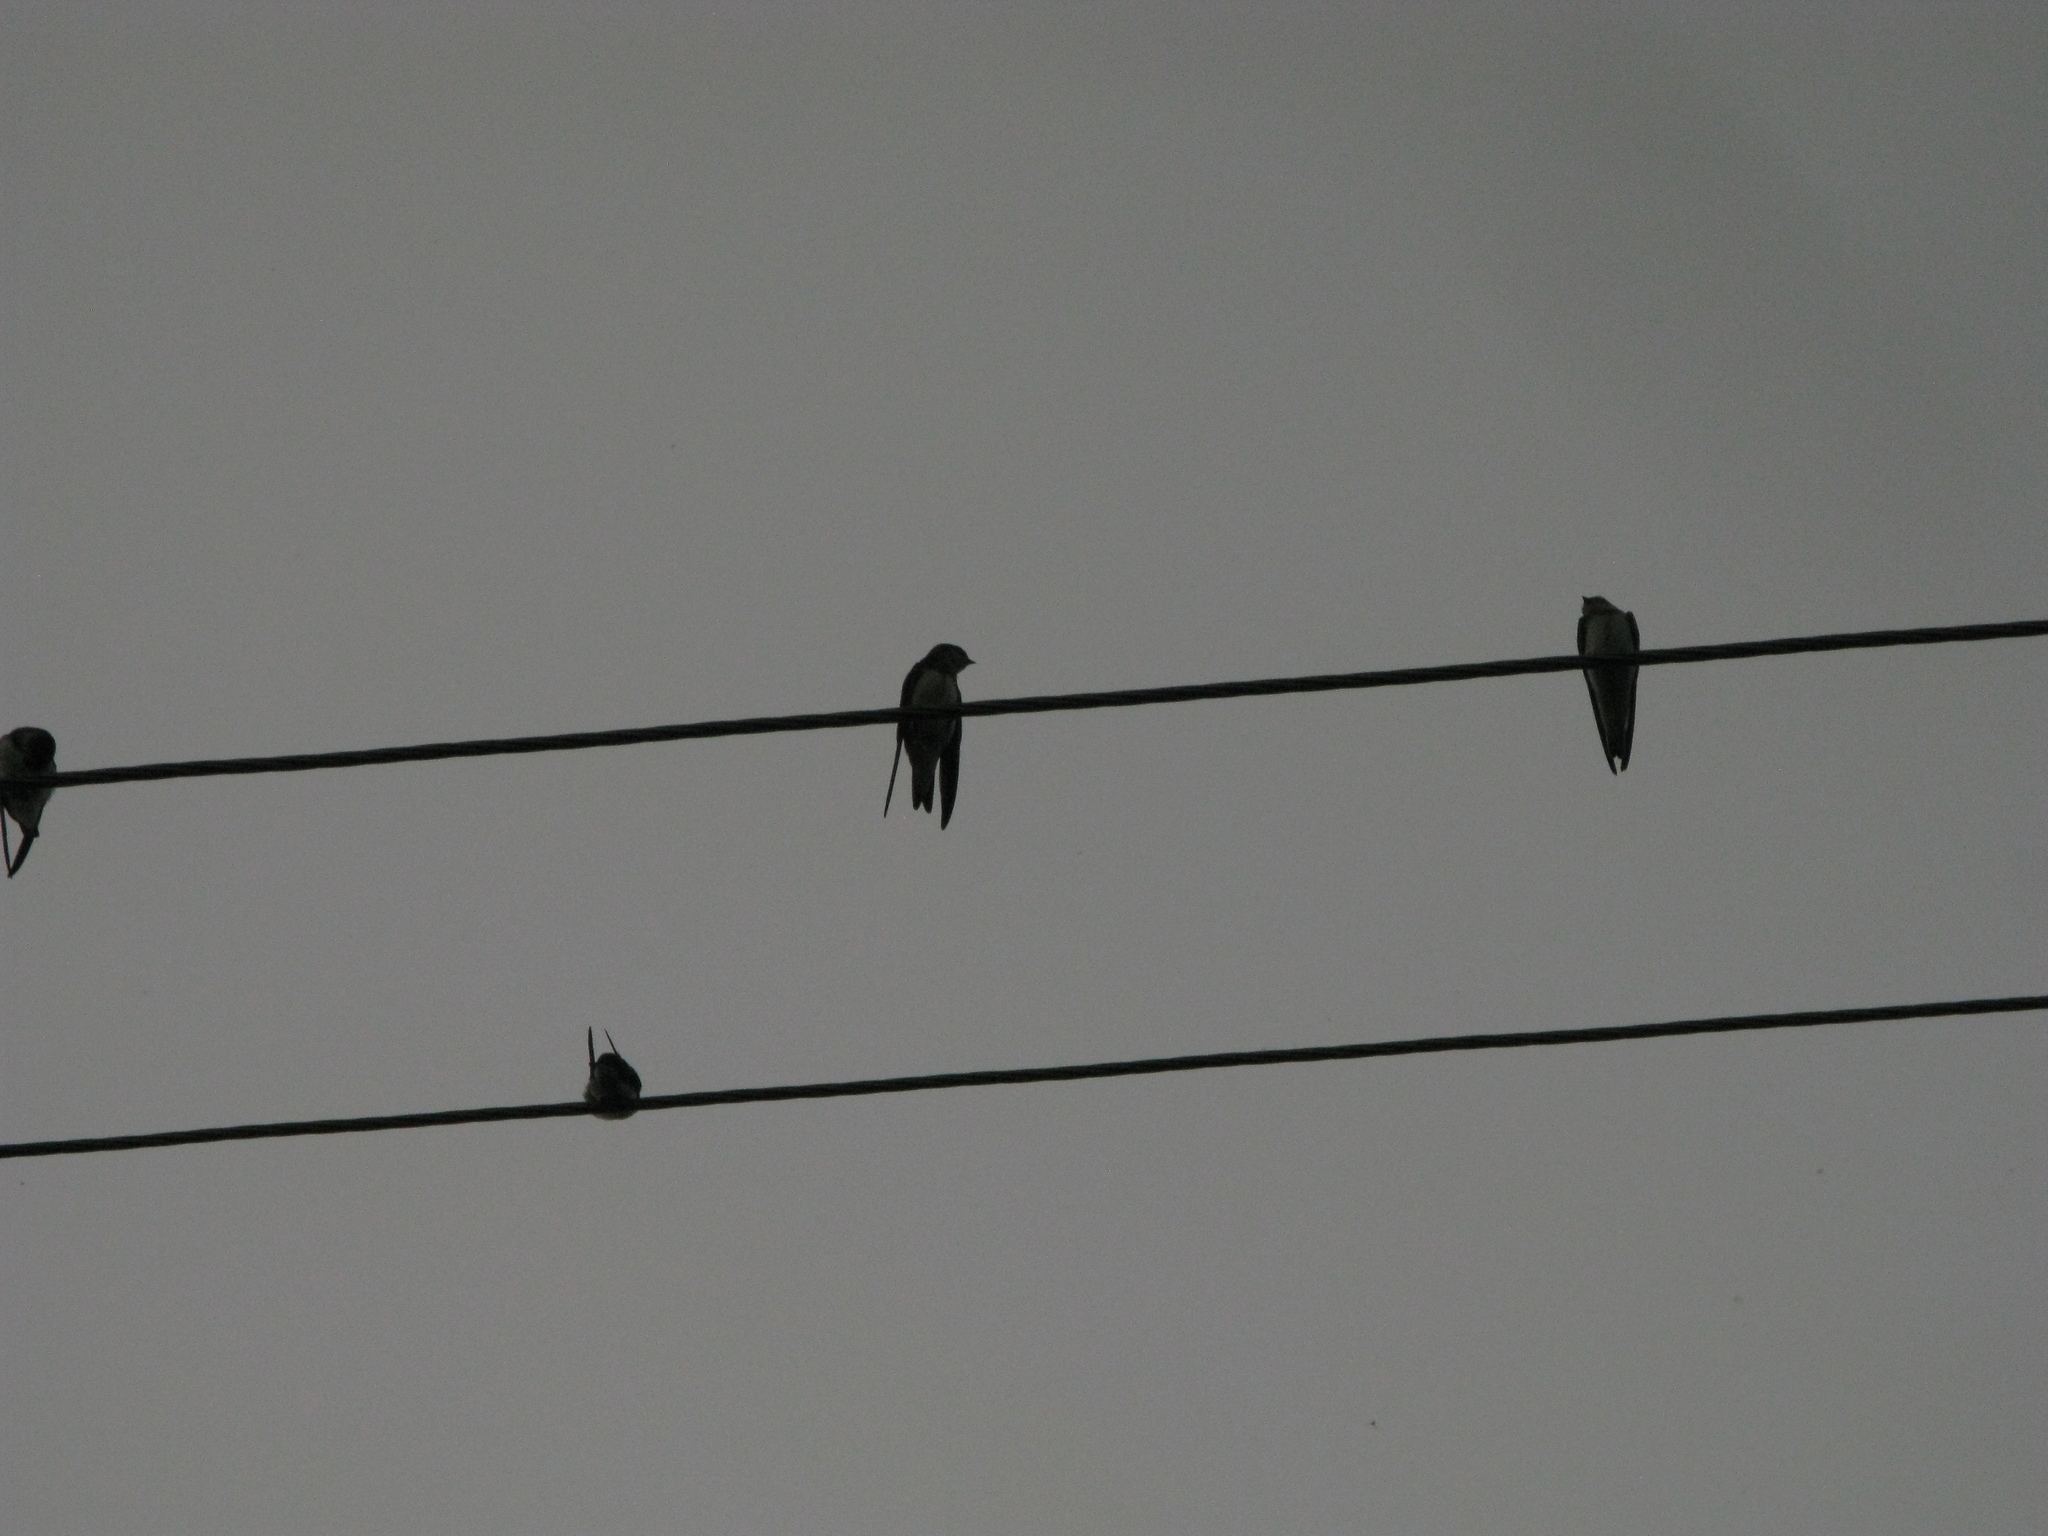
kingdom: Animalia
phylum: Chordata
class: Aves
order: Passeriformes
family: Hirundinidae
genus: Hirundo
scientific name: Hirundo rustica
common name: Barn swallow
